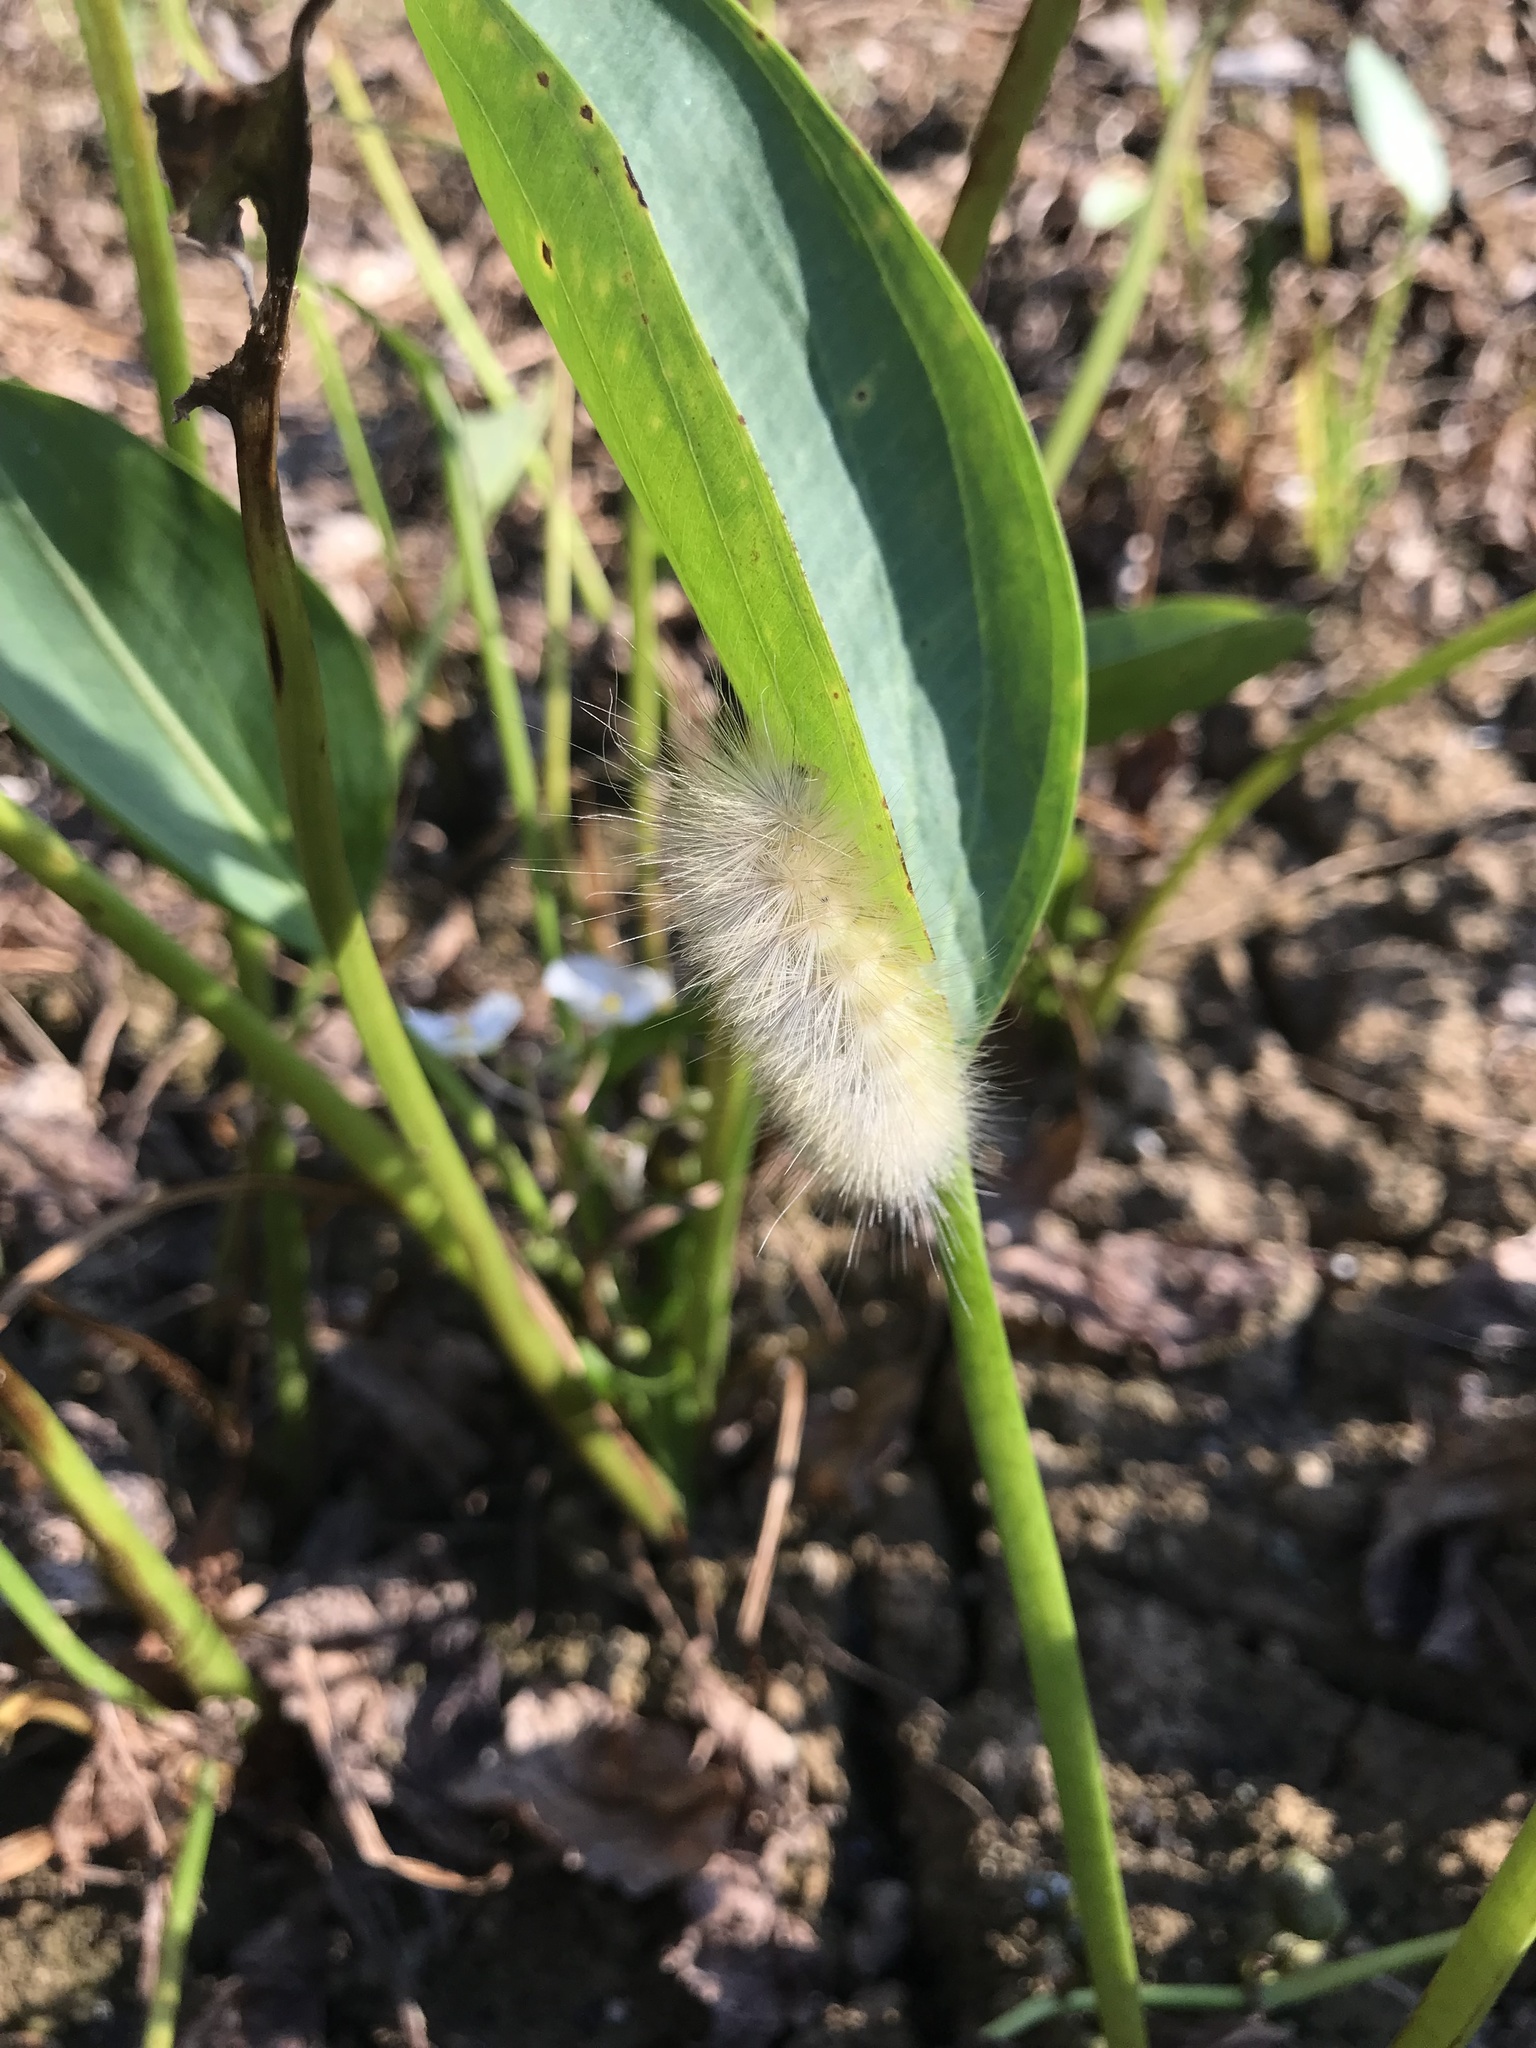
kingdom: Animalia
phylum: Arthropoda
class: Insecta
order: Lepidoptera
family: Erebidae
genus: Spilosoma
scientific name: Spilosoma virginica
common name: Virginia tiger moth
